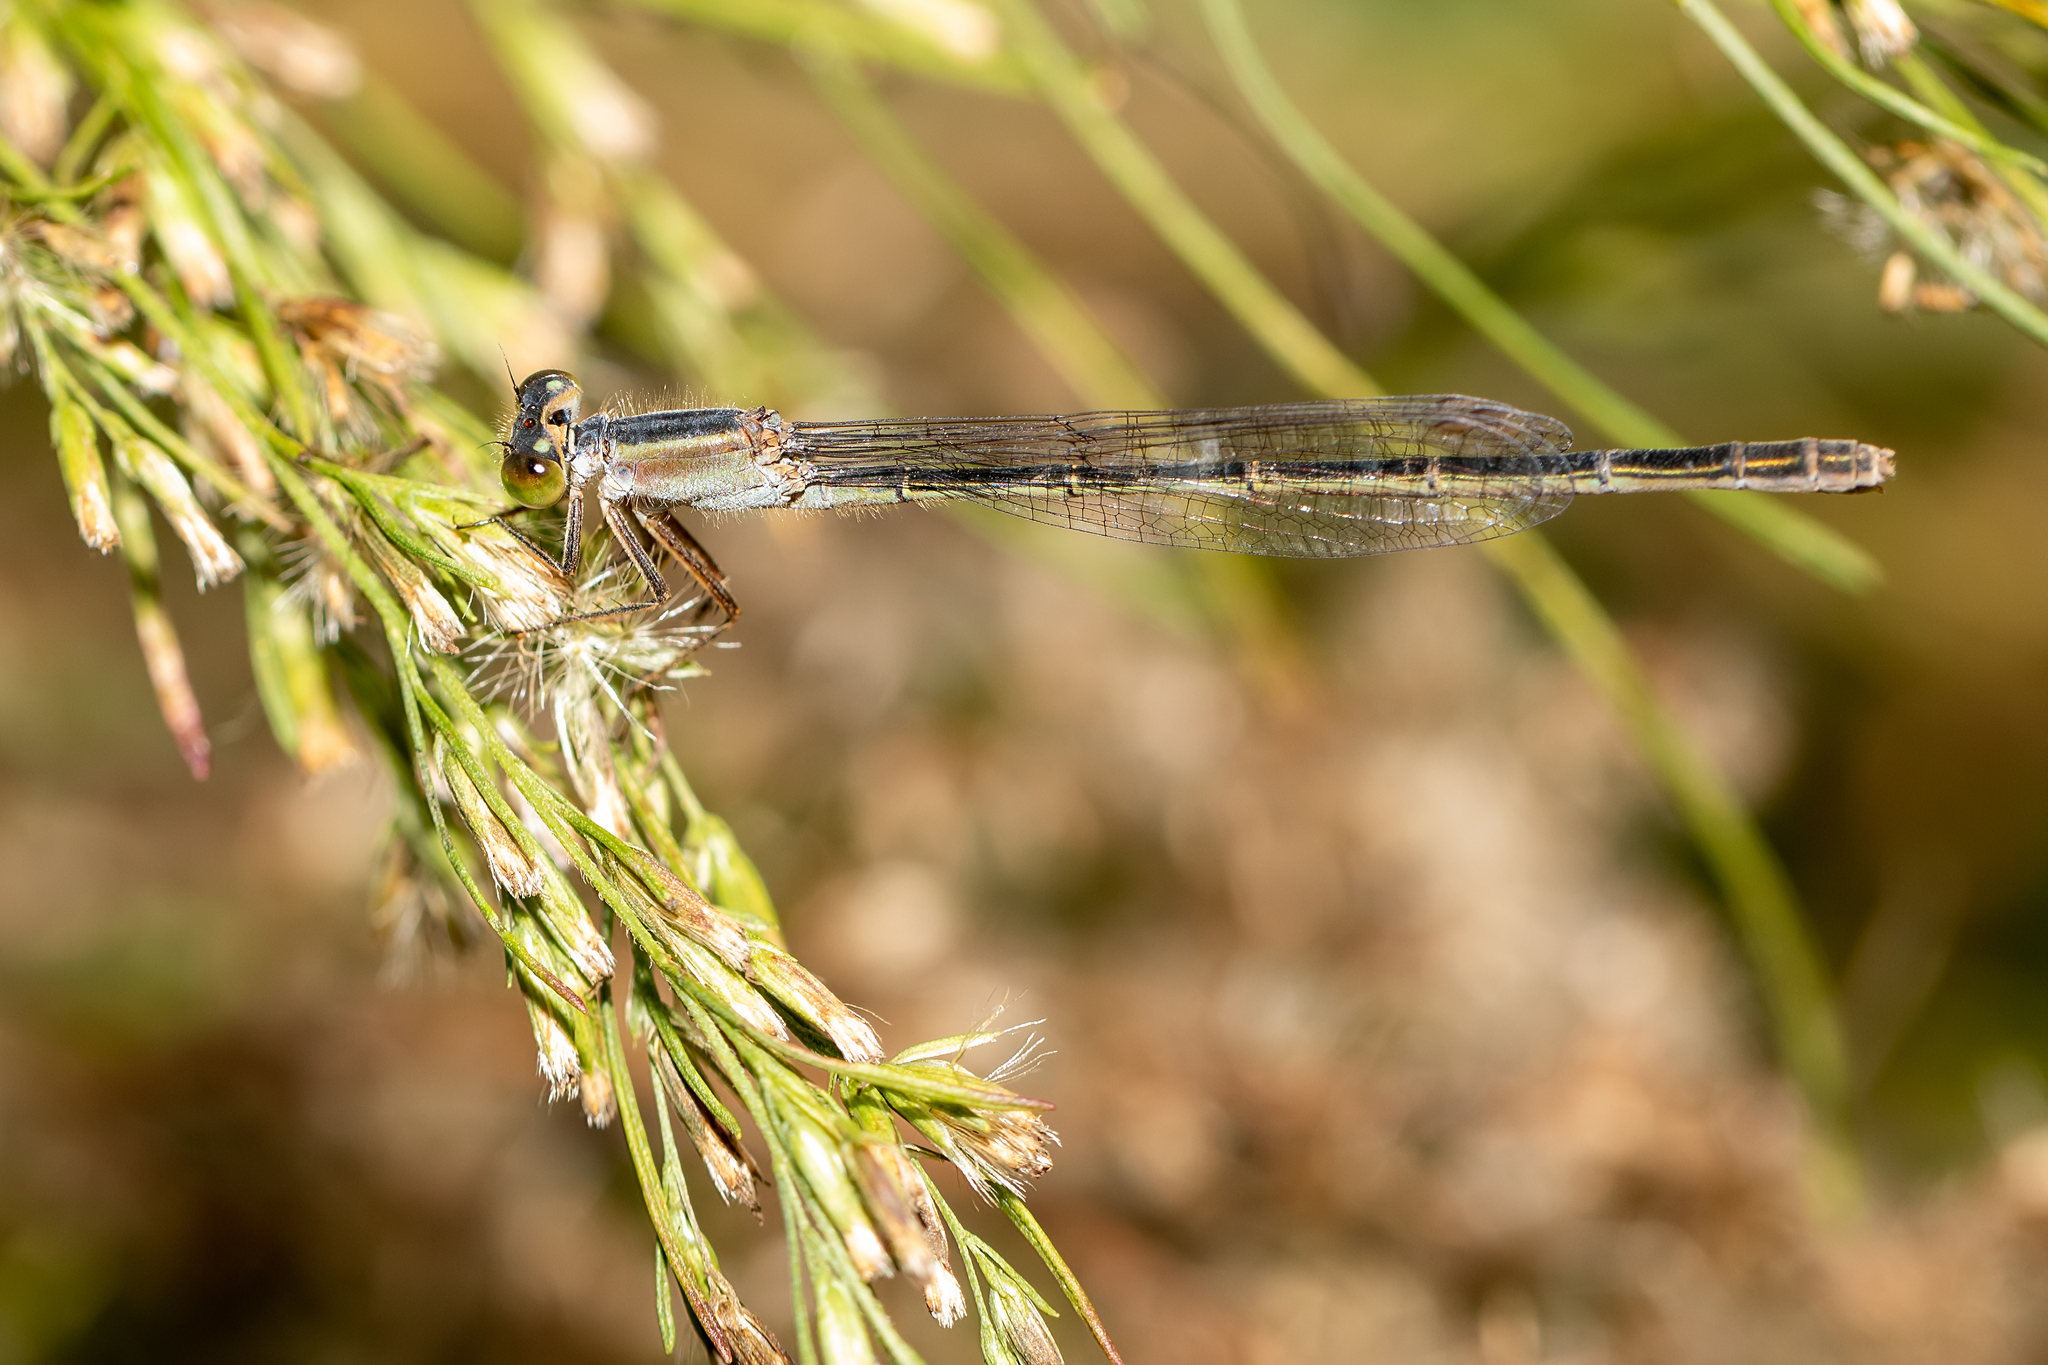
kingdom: Animalia
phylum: Arthropoda
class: Insecta
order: Odonata
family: Coenagrionidae
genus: Ischnura
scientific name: Ischnura ramburii
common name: Rambur's forktail
